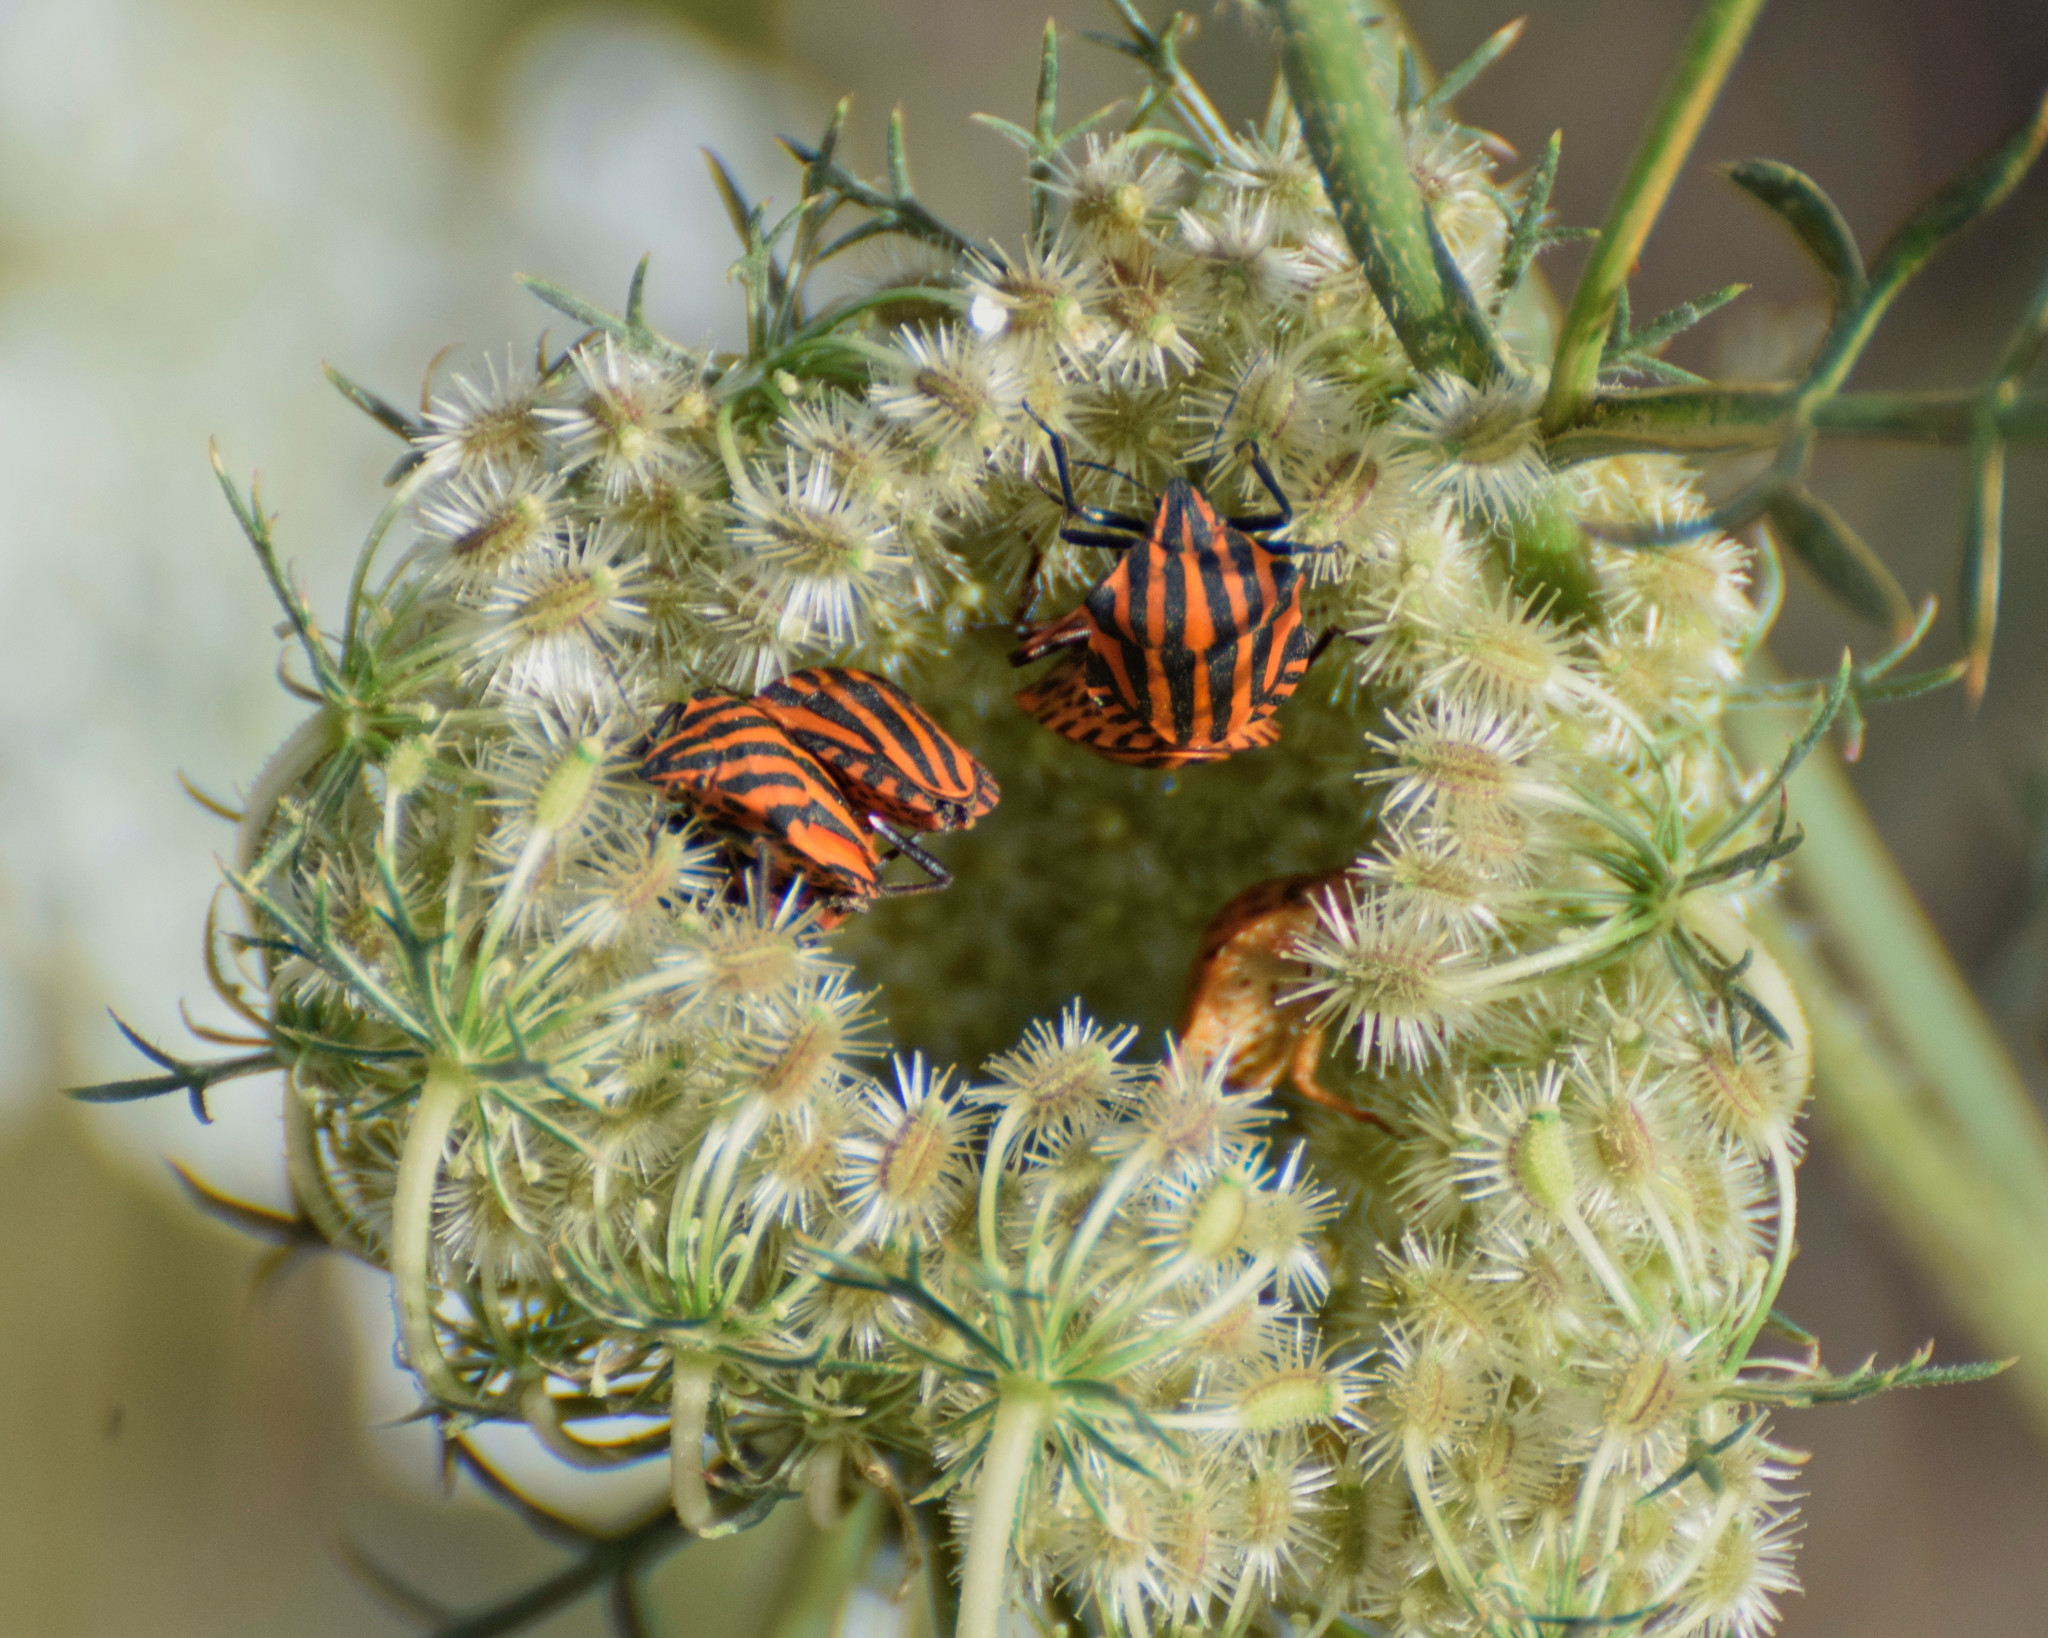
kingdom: Animalia
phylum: Arthropoda
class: Insecta
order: Hemiptera
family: Pentatomidae
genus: Graphosoma
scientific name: Graphosoma italicum
